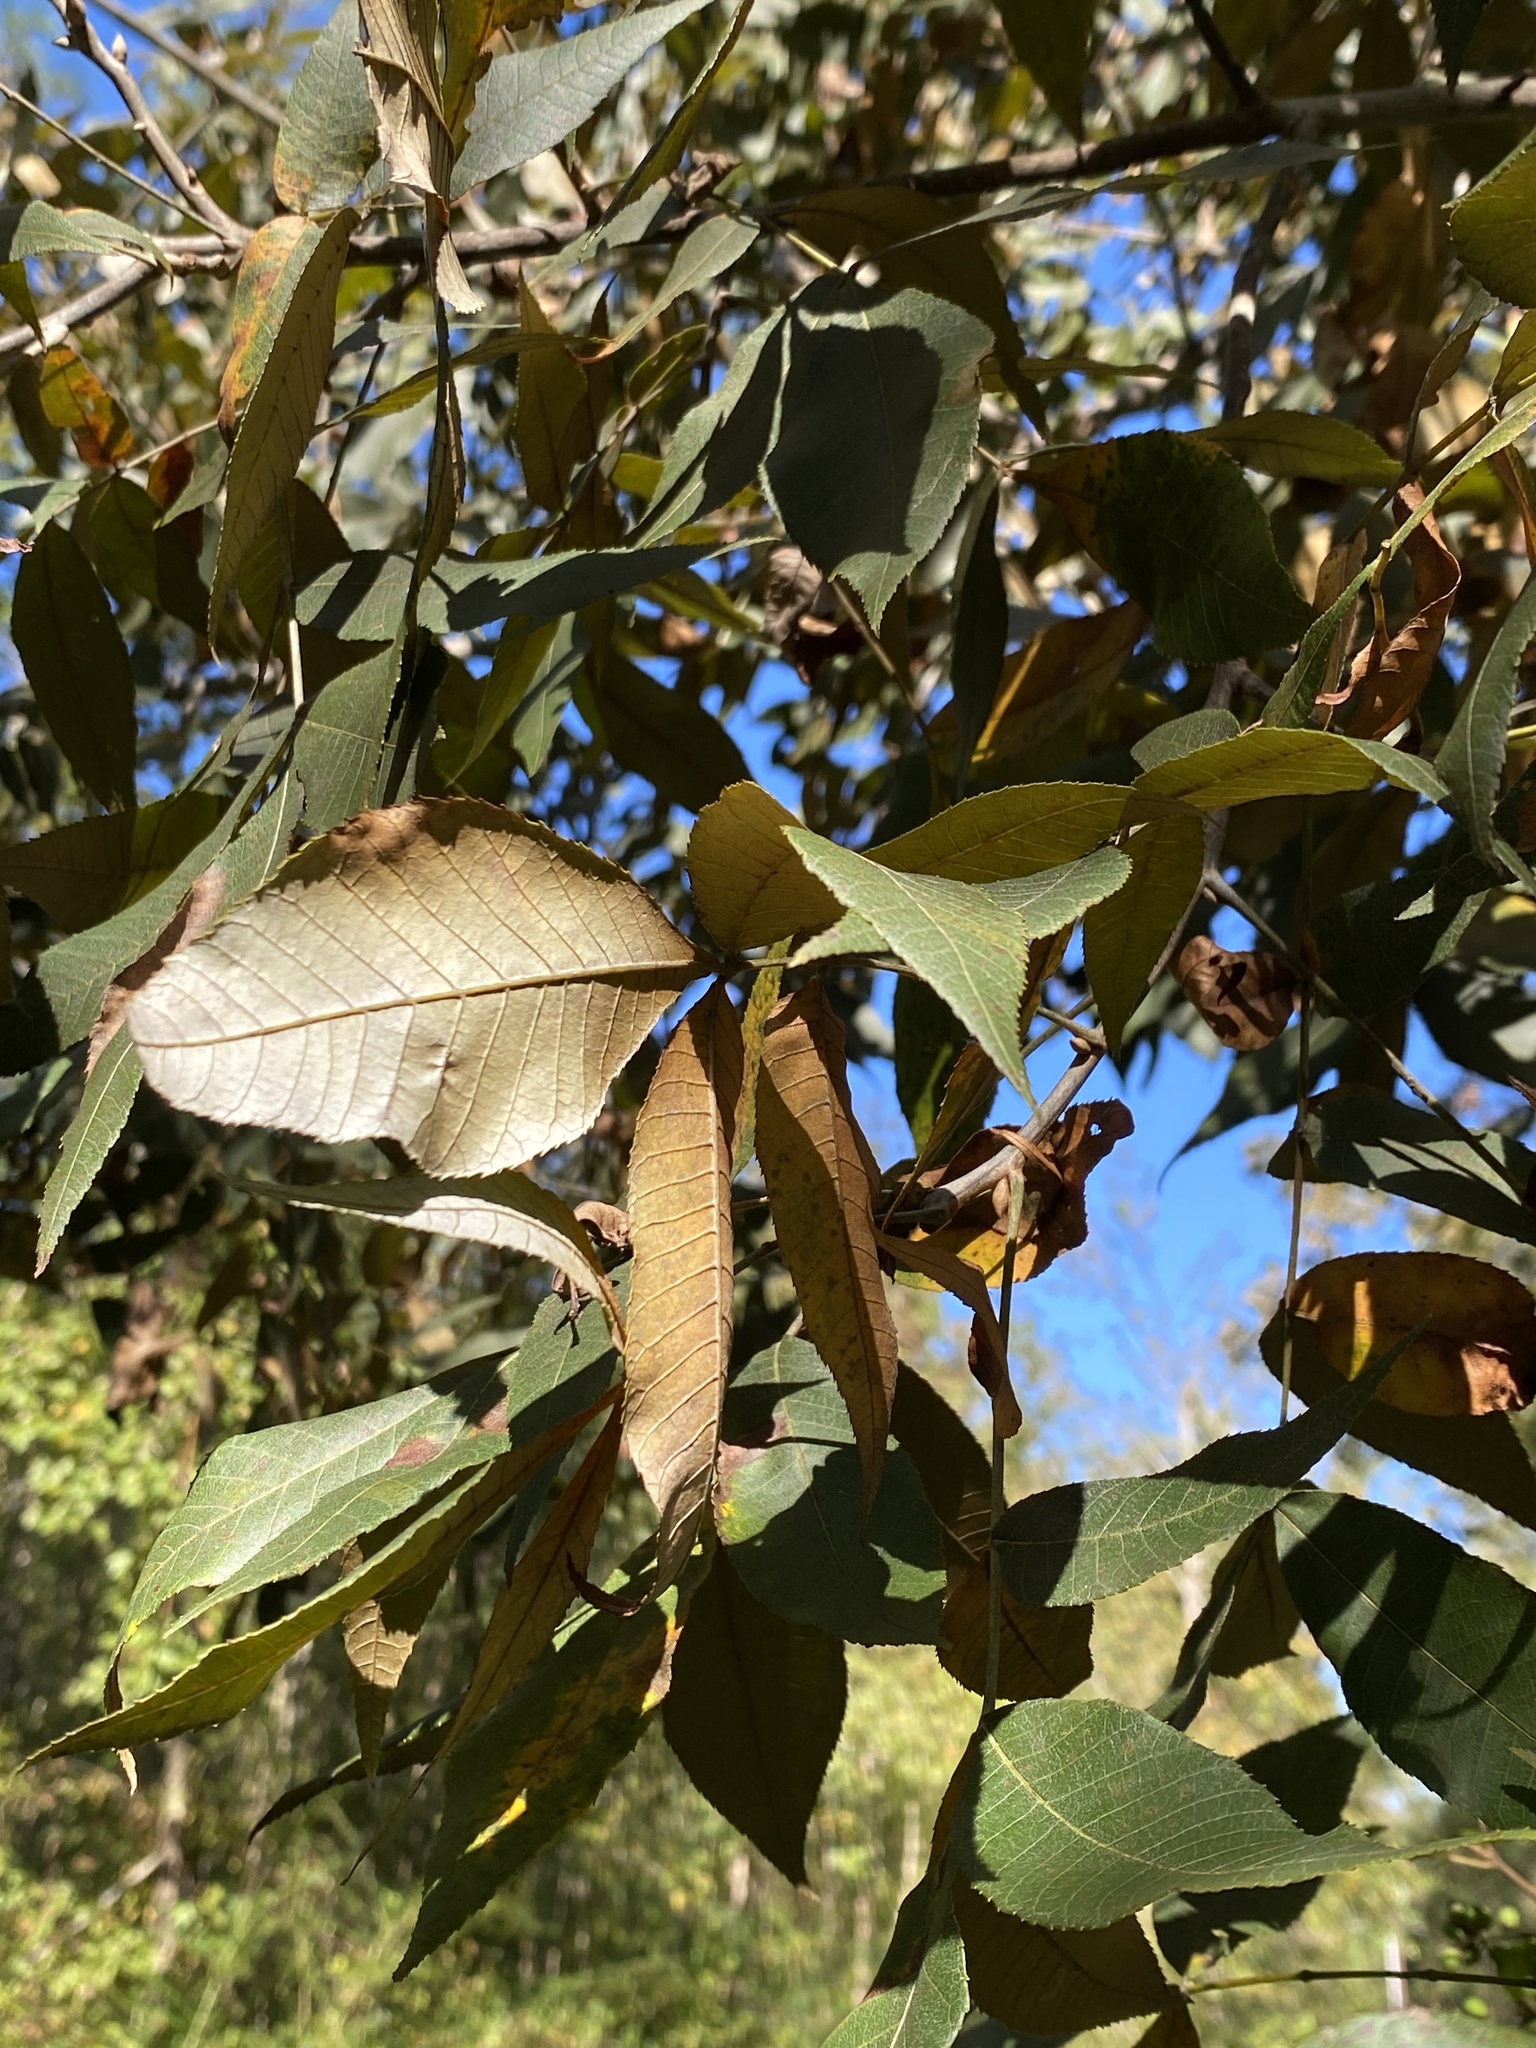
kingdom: Plantae
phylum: Tracheophyta
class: Magnoliopsida
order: Fagales
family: Juglandaceae
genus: Carya
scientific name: Carya myristiciformis
